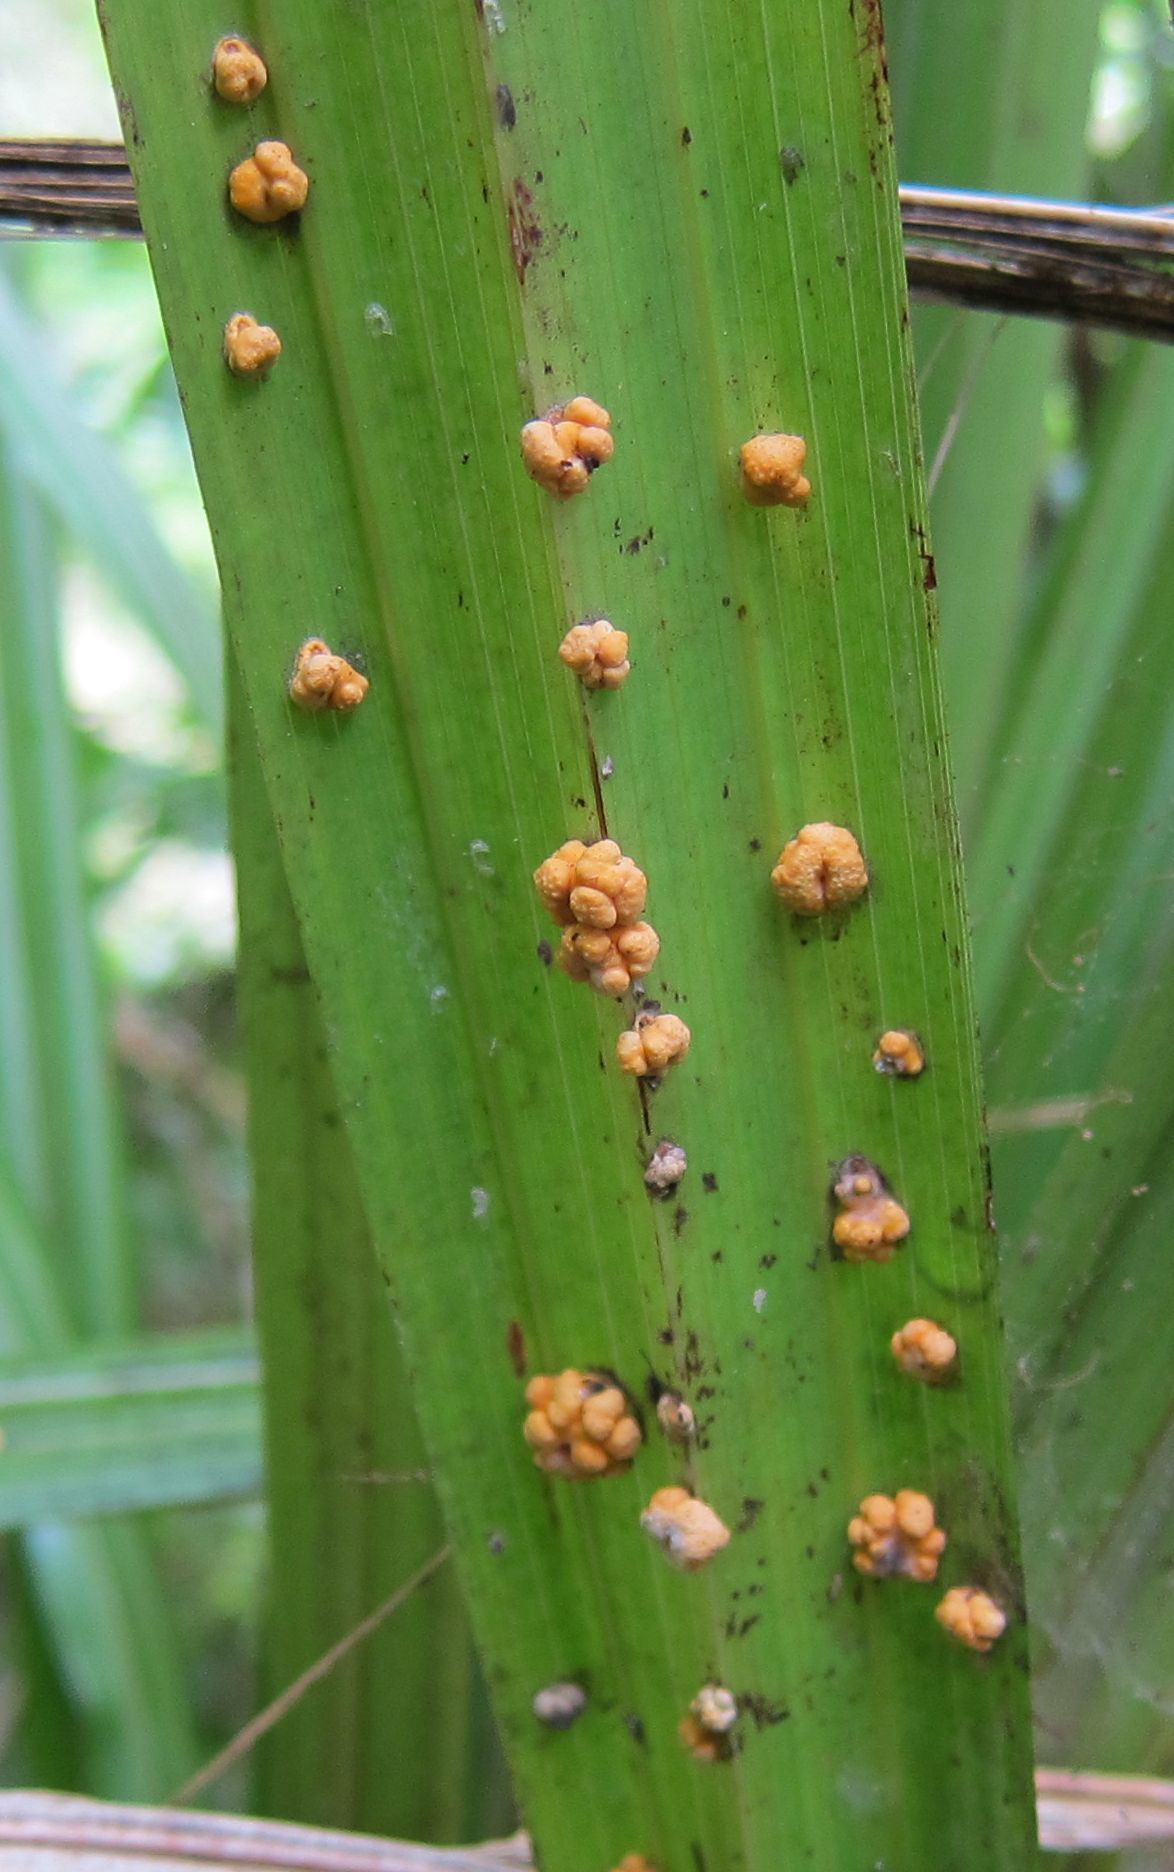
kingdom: Fungi
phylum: Ascomycota
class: Sordariomycetes
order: Hypocreales
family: Clavicipitaceae
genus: Hypocrella
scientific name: Hypocrella
